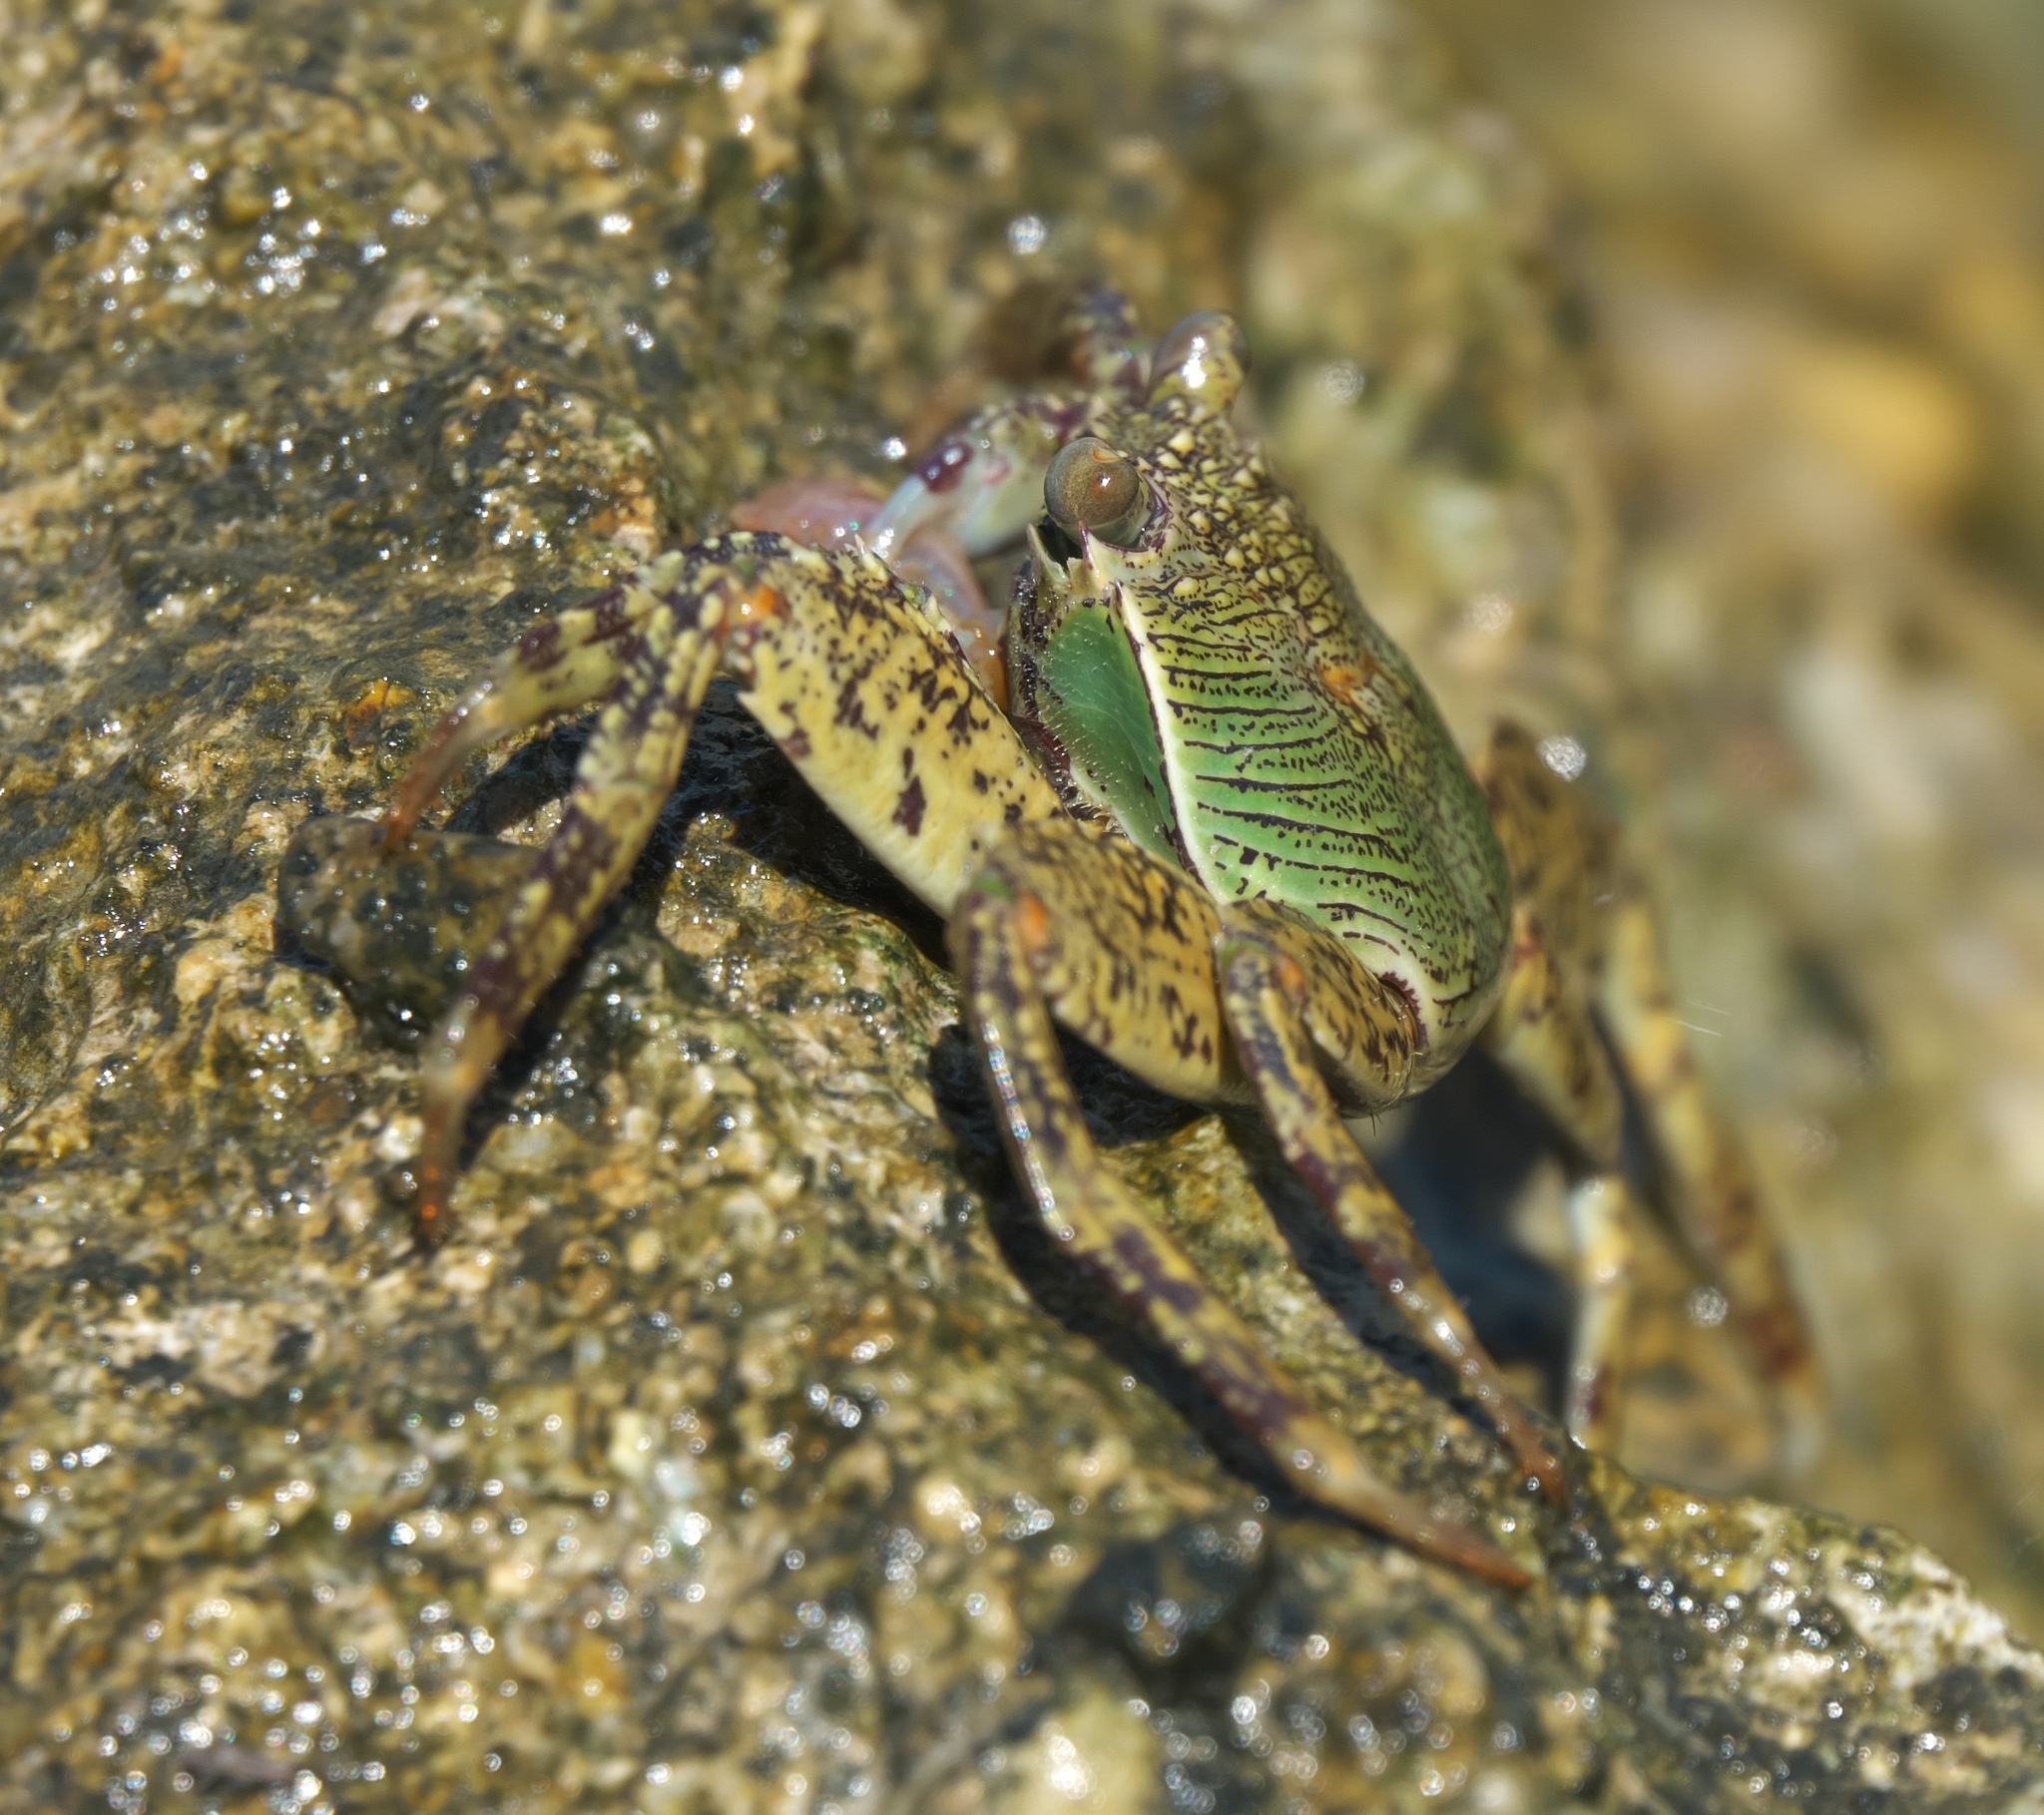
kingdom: Animalia
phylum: Arthropoda
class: Malacostraca
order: Decapoda
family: Grapsidae
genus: Grapsus
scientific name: Grapsus albolineatus
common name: Mottled lightfoot crab
